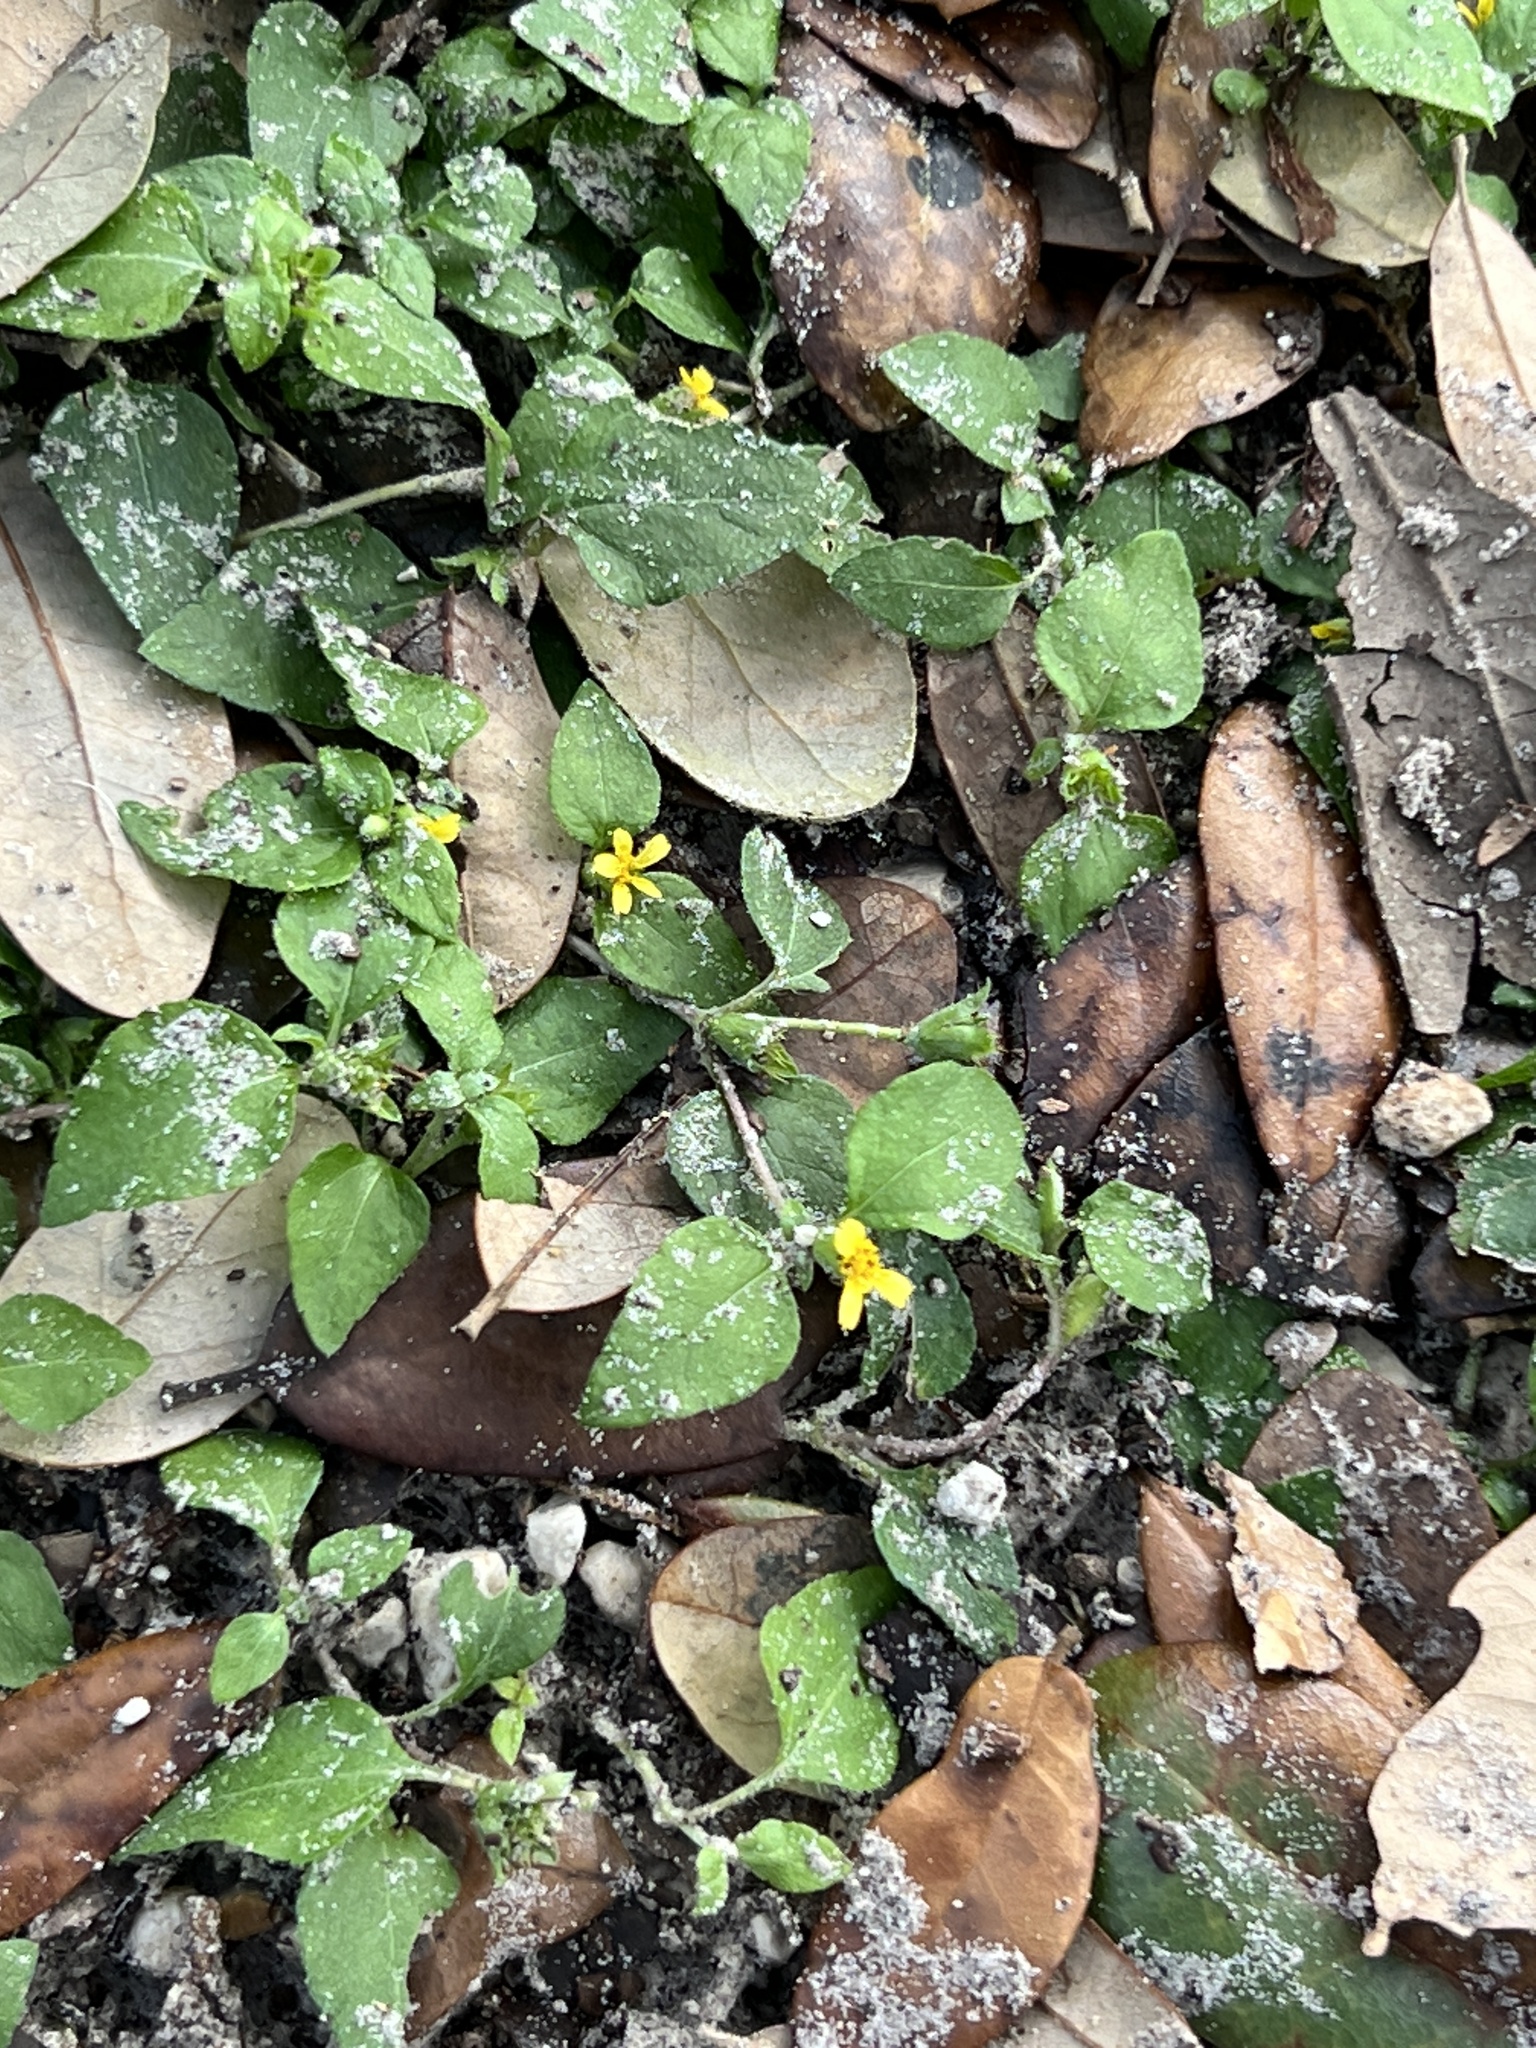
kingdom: Plantae
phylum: Tracheophyta
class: Magnoliopsida
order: Asterales
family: Asteraceae
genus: Calyptocarpus
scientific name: Calyptocarpus vialis
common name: Straggler daisy
